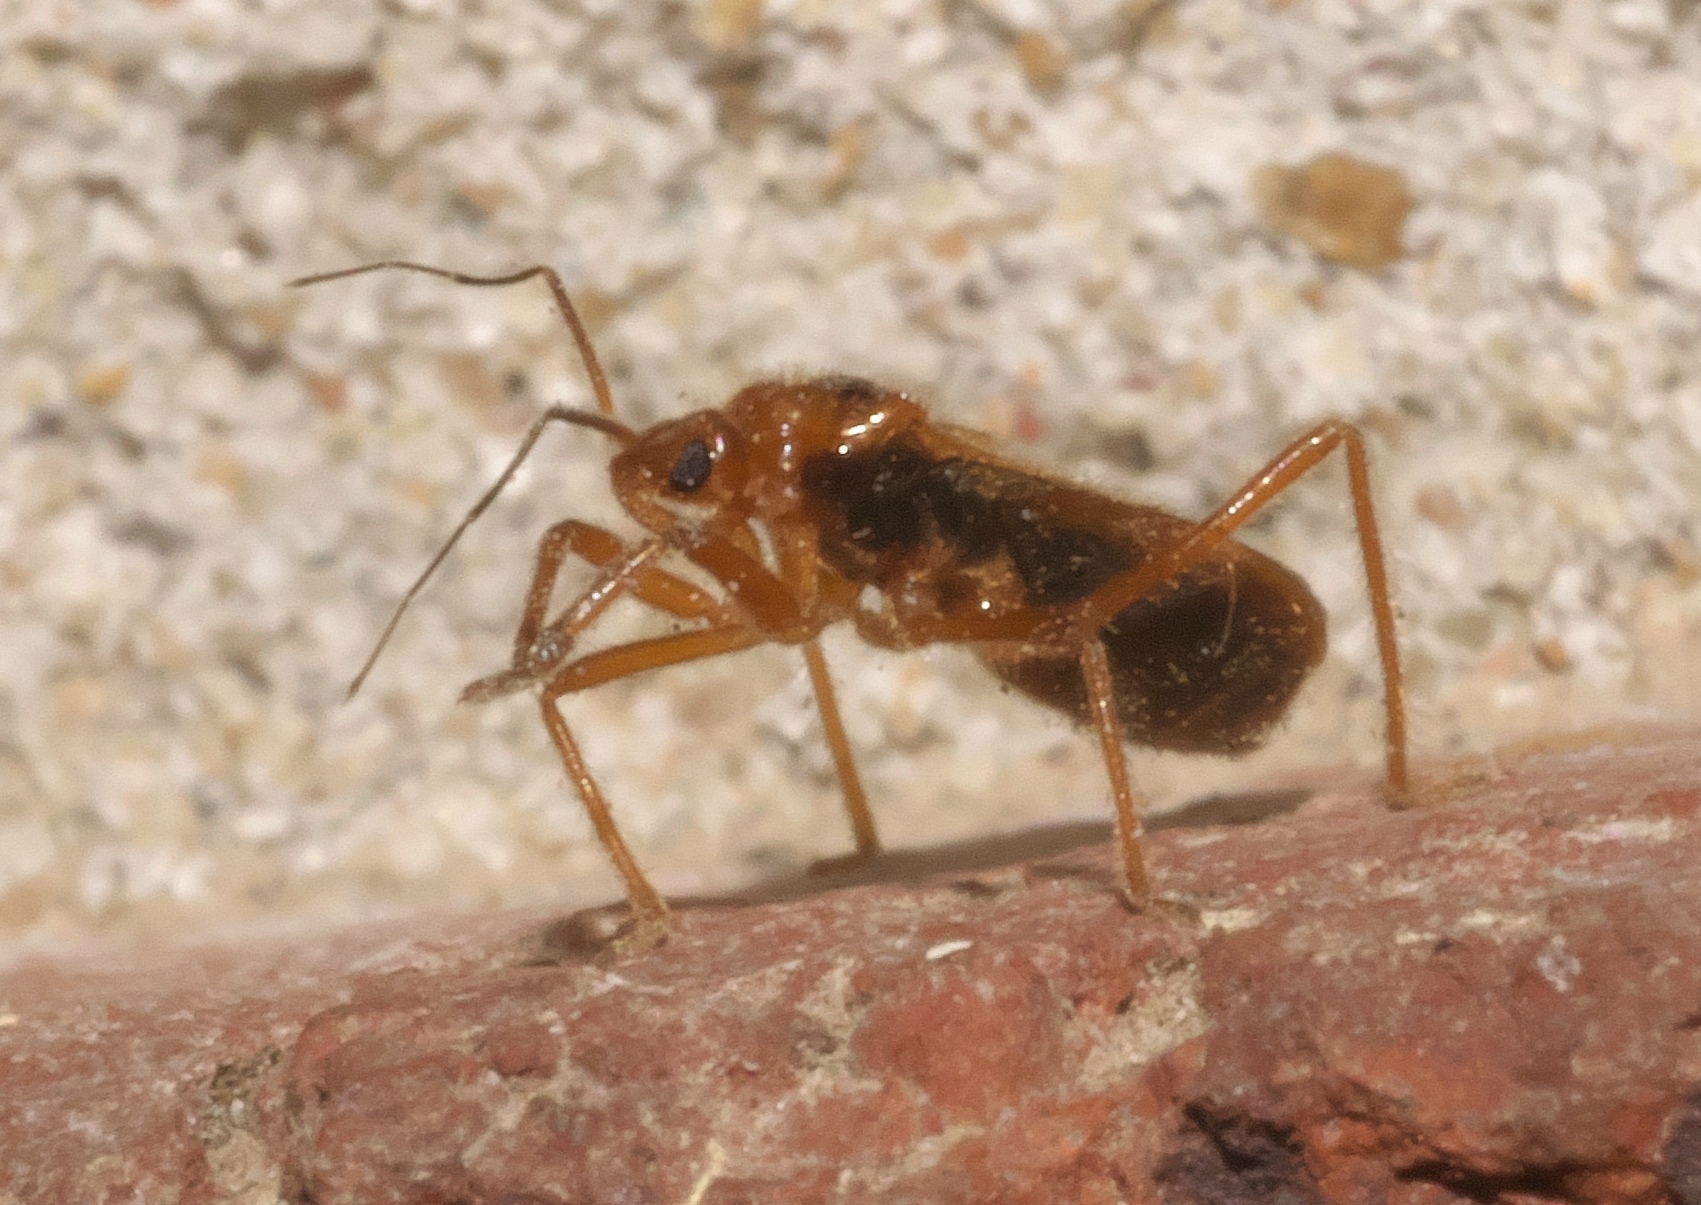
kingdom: Animalia
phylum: Arthropoda
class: Insecta
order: Hemiptera
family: Reduviidae
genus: Oncerotrachelus
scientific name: Oncerotrachelus acuminatus
